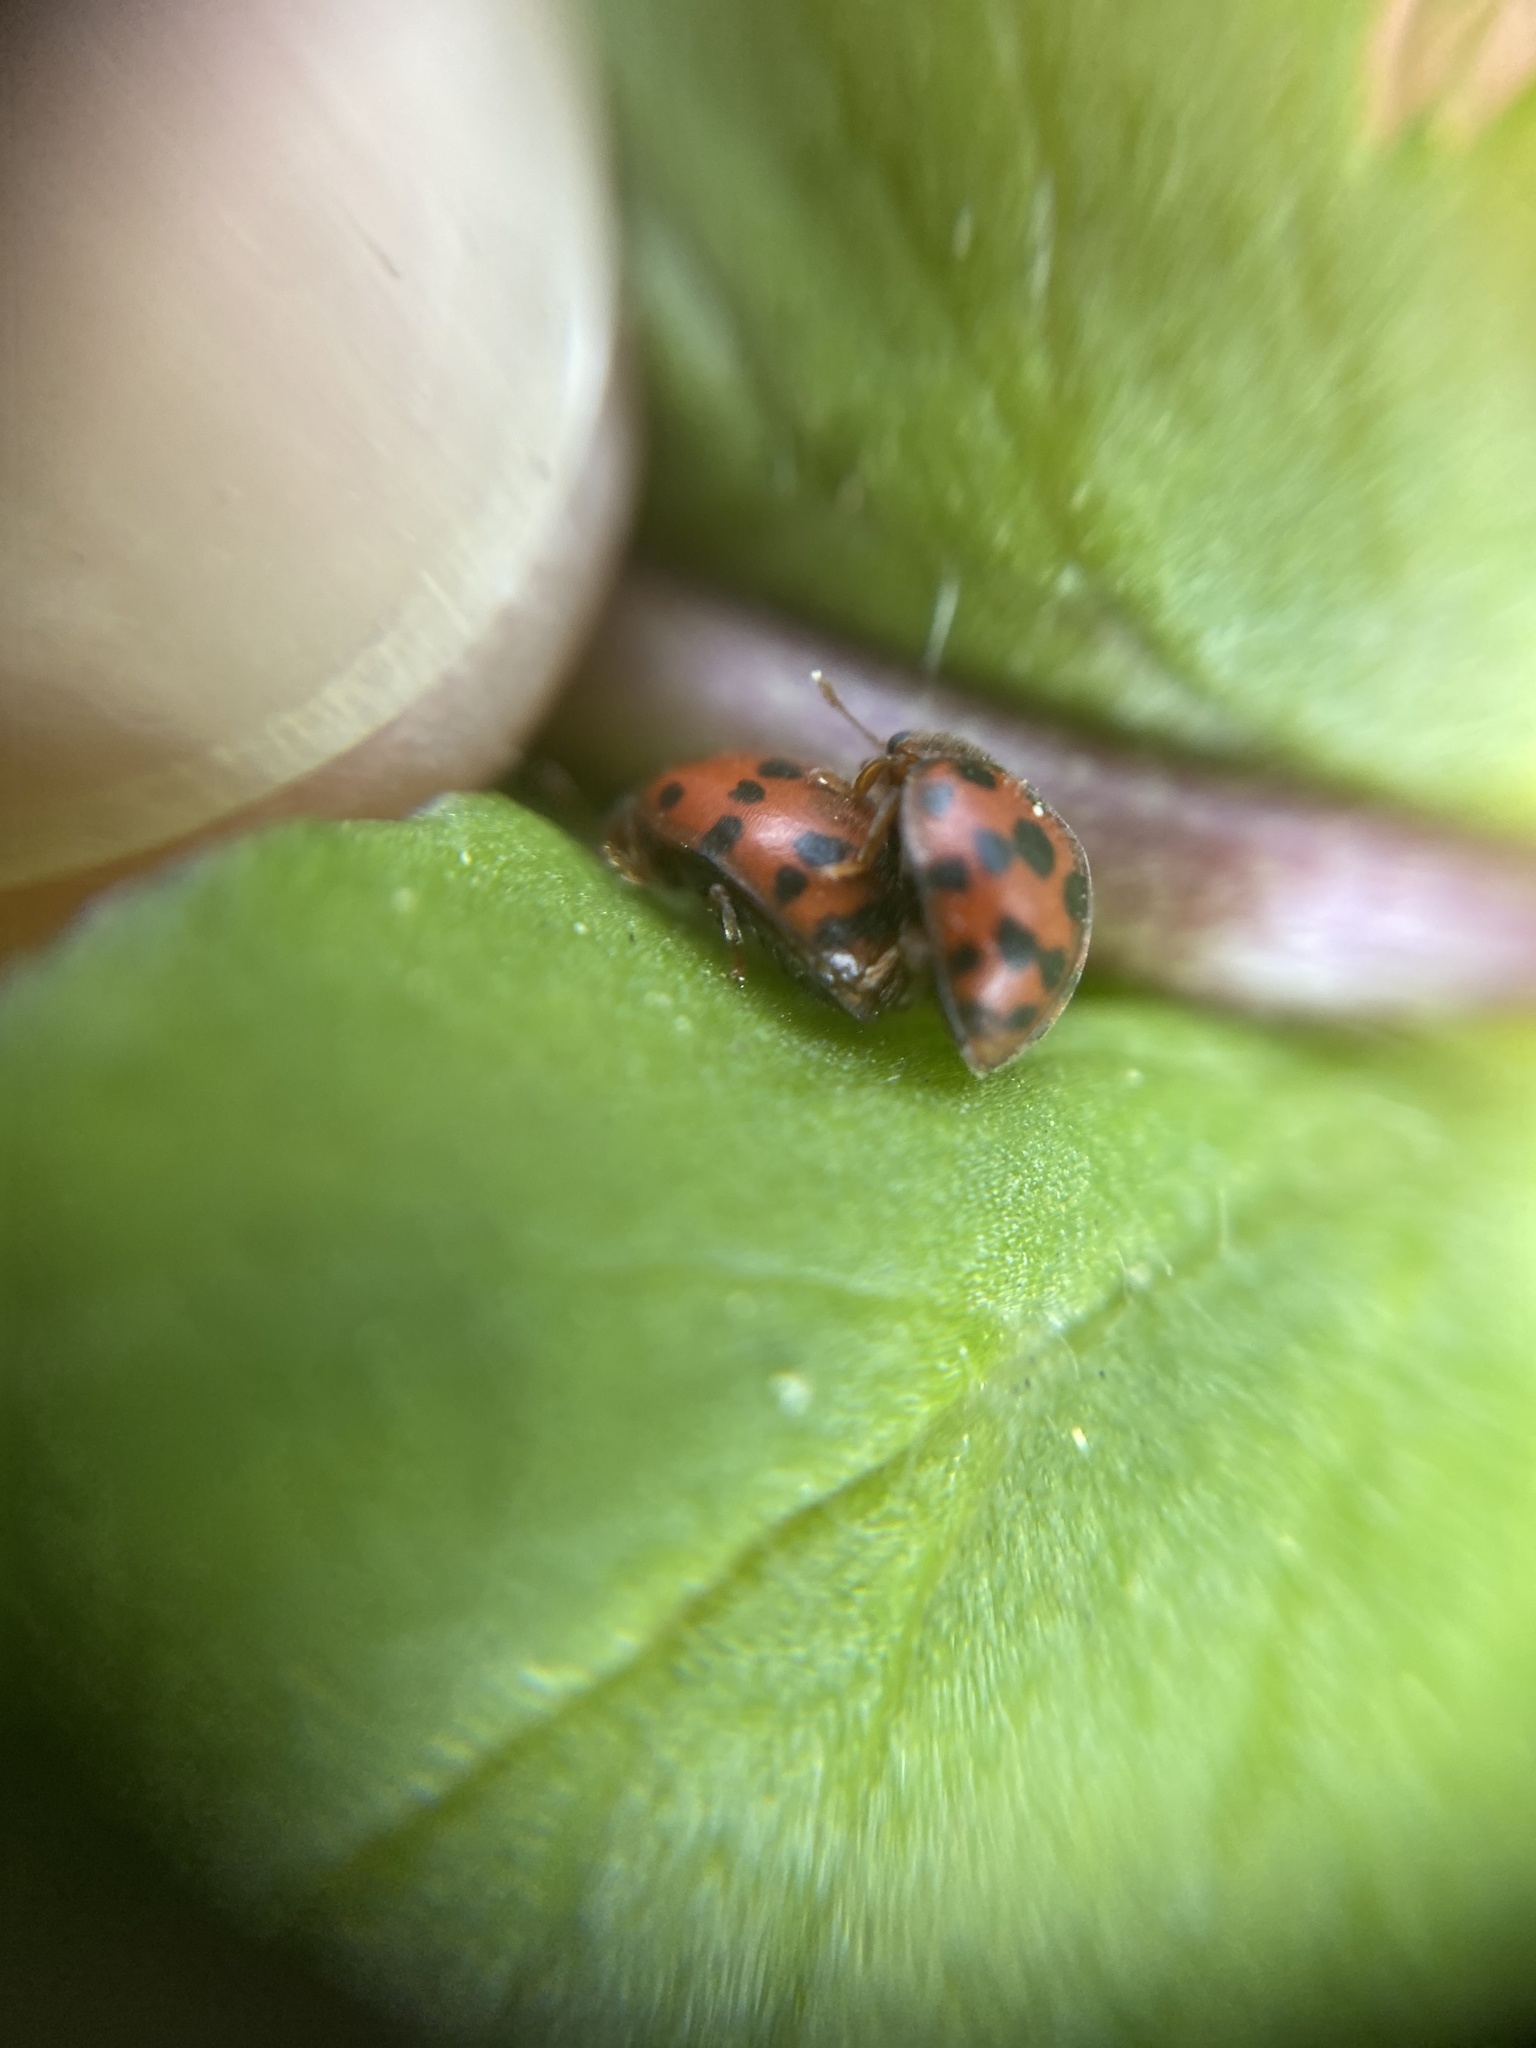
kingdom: Animalia
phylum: Arthropoda
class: Insecta
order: Coleoptera
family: Coccinellidae
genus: Subcoccinella
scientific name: Subcoccinella vigintiquatuorpunctata
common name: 24-spot ladybird
